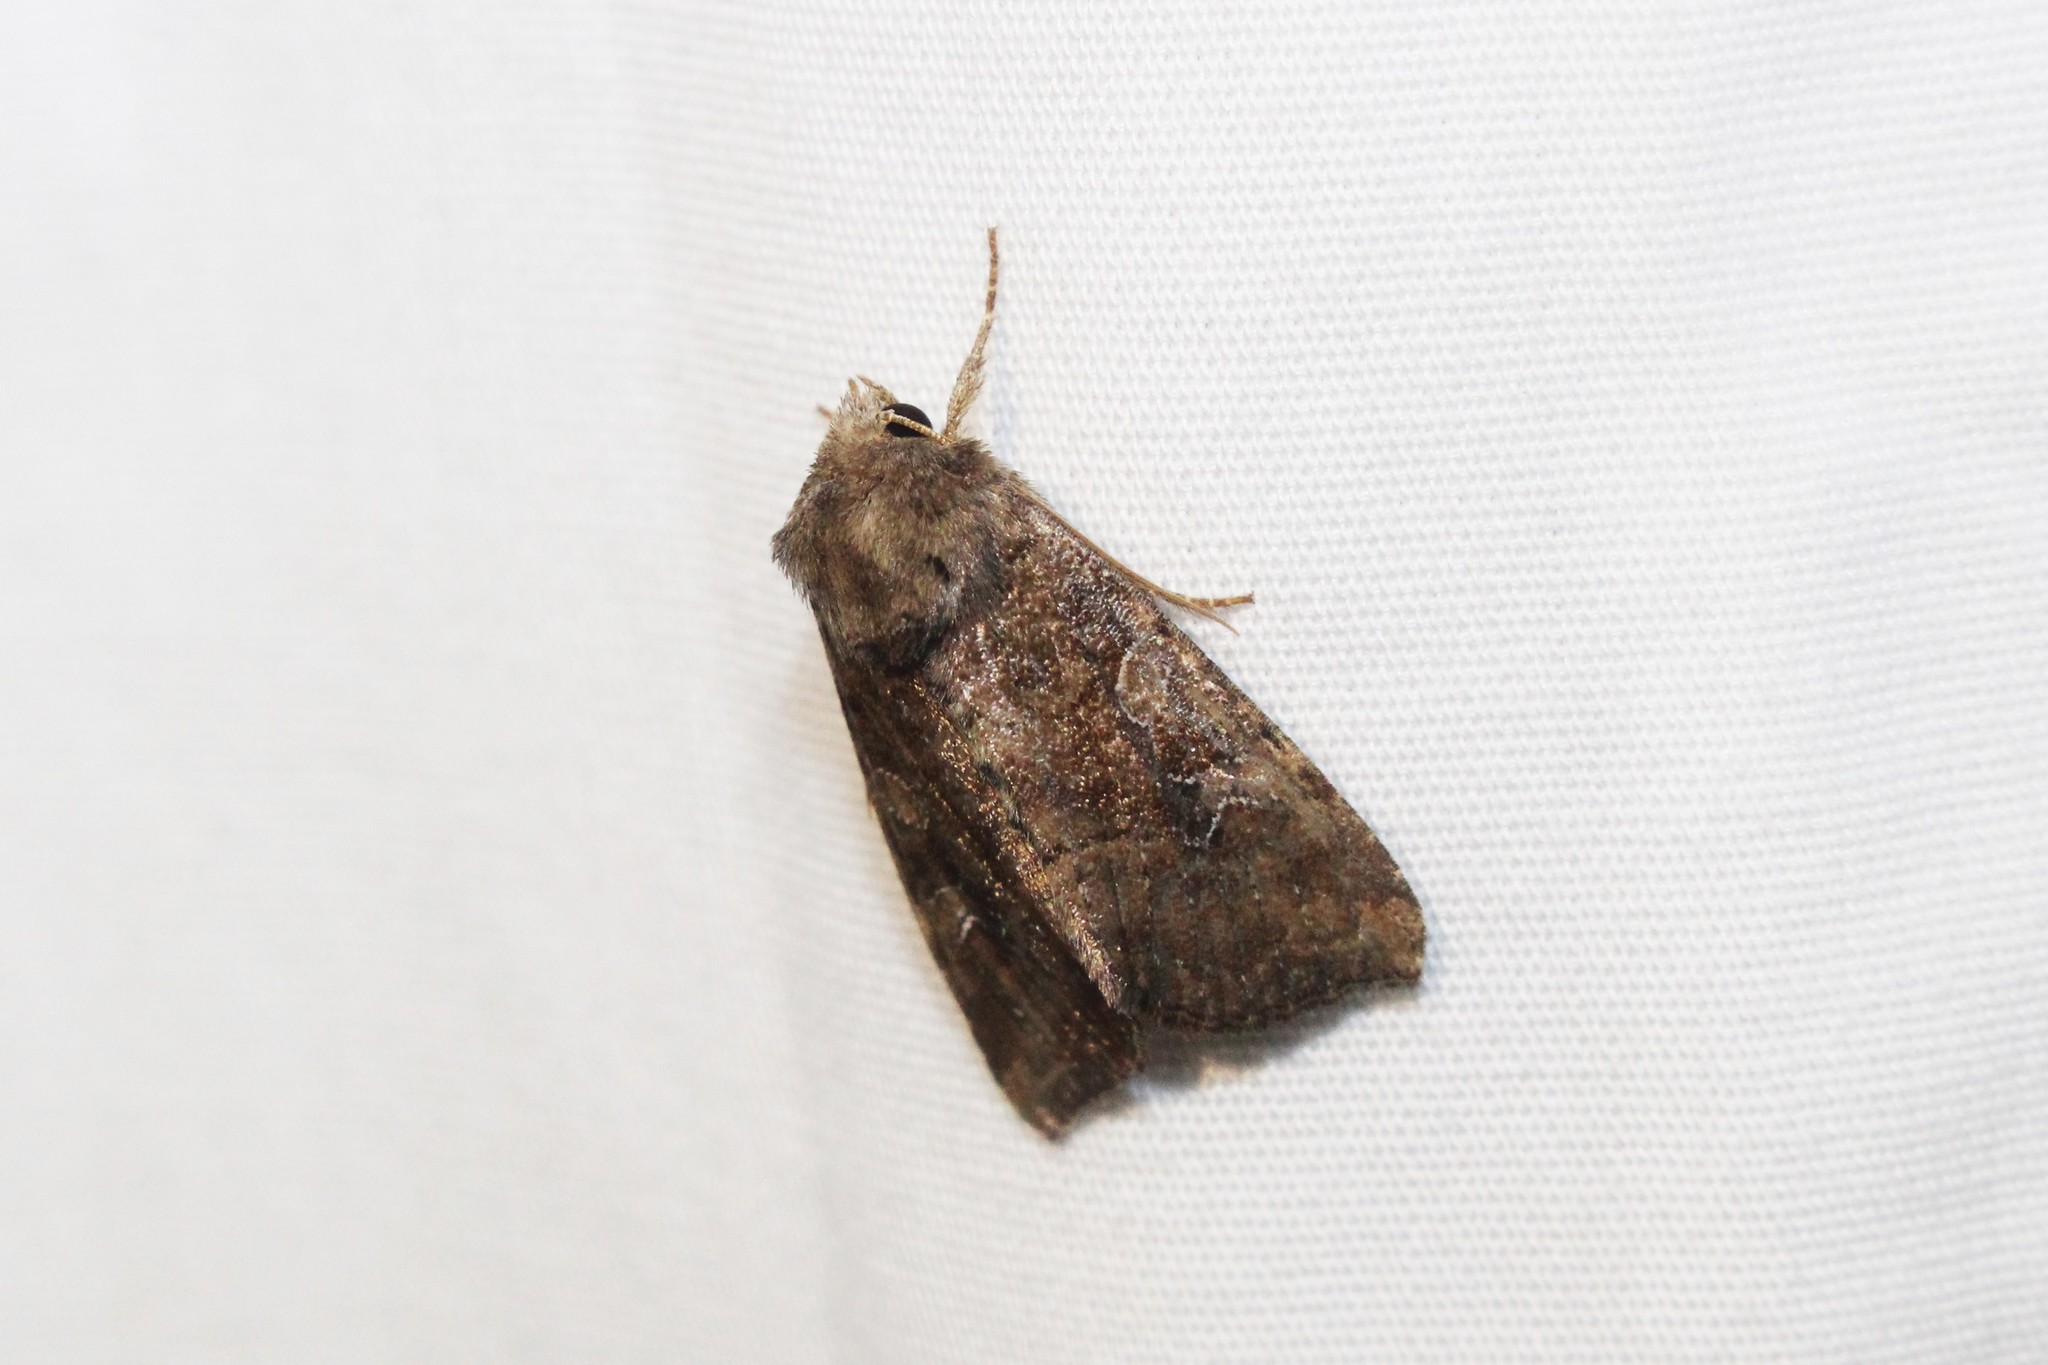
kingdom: Animalia
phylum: Arthropoda
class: Insecta
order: Lepidoptera
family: Noctuidae
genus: Loscopia
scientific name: Loscopia velata
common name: Veiled ear moth
